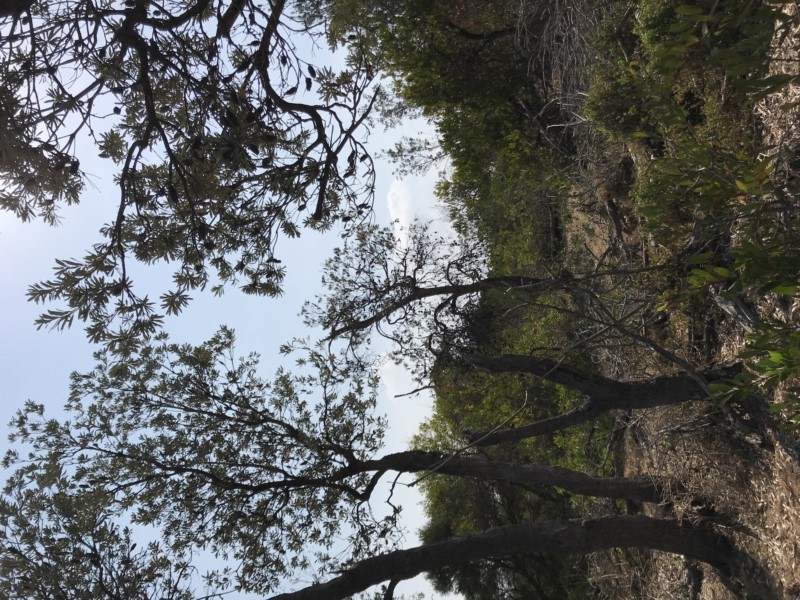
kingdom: Plantae
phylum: Tracheophyta
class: Magnoliopsida
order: Proteales
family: Proteaceae
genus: Banksia
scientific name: Banksia integrifolia
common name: White-honeysuckle
